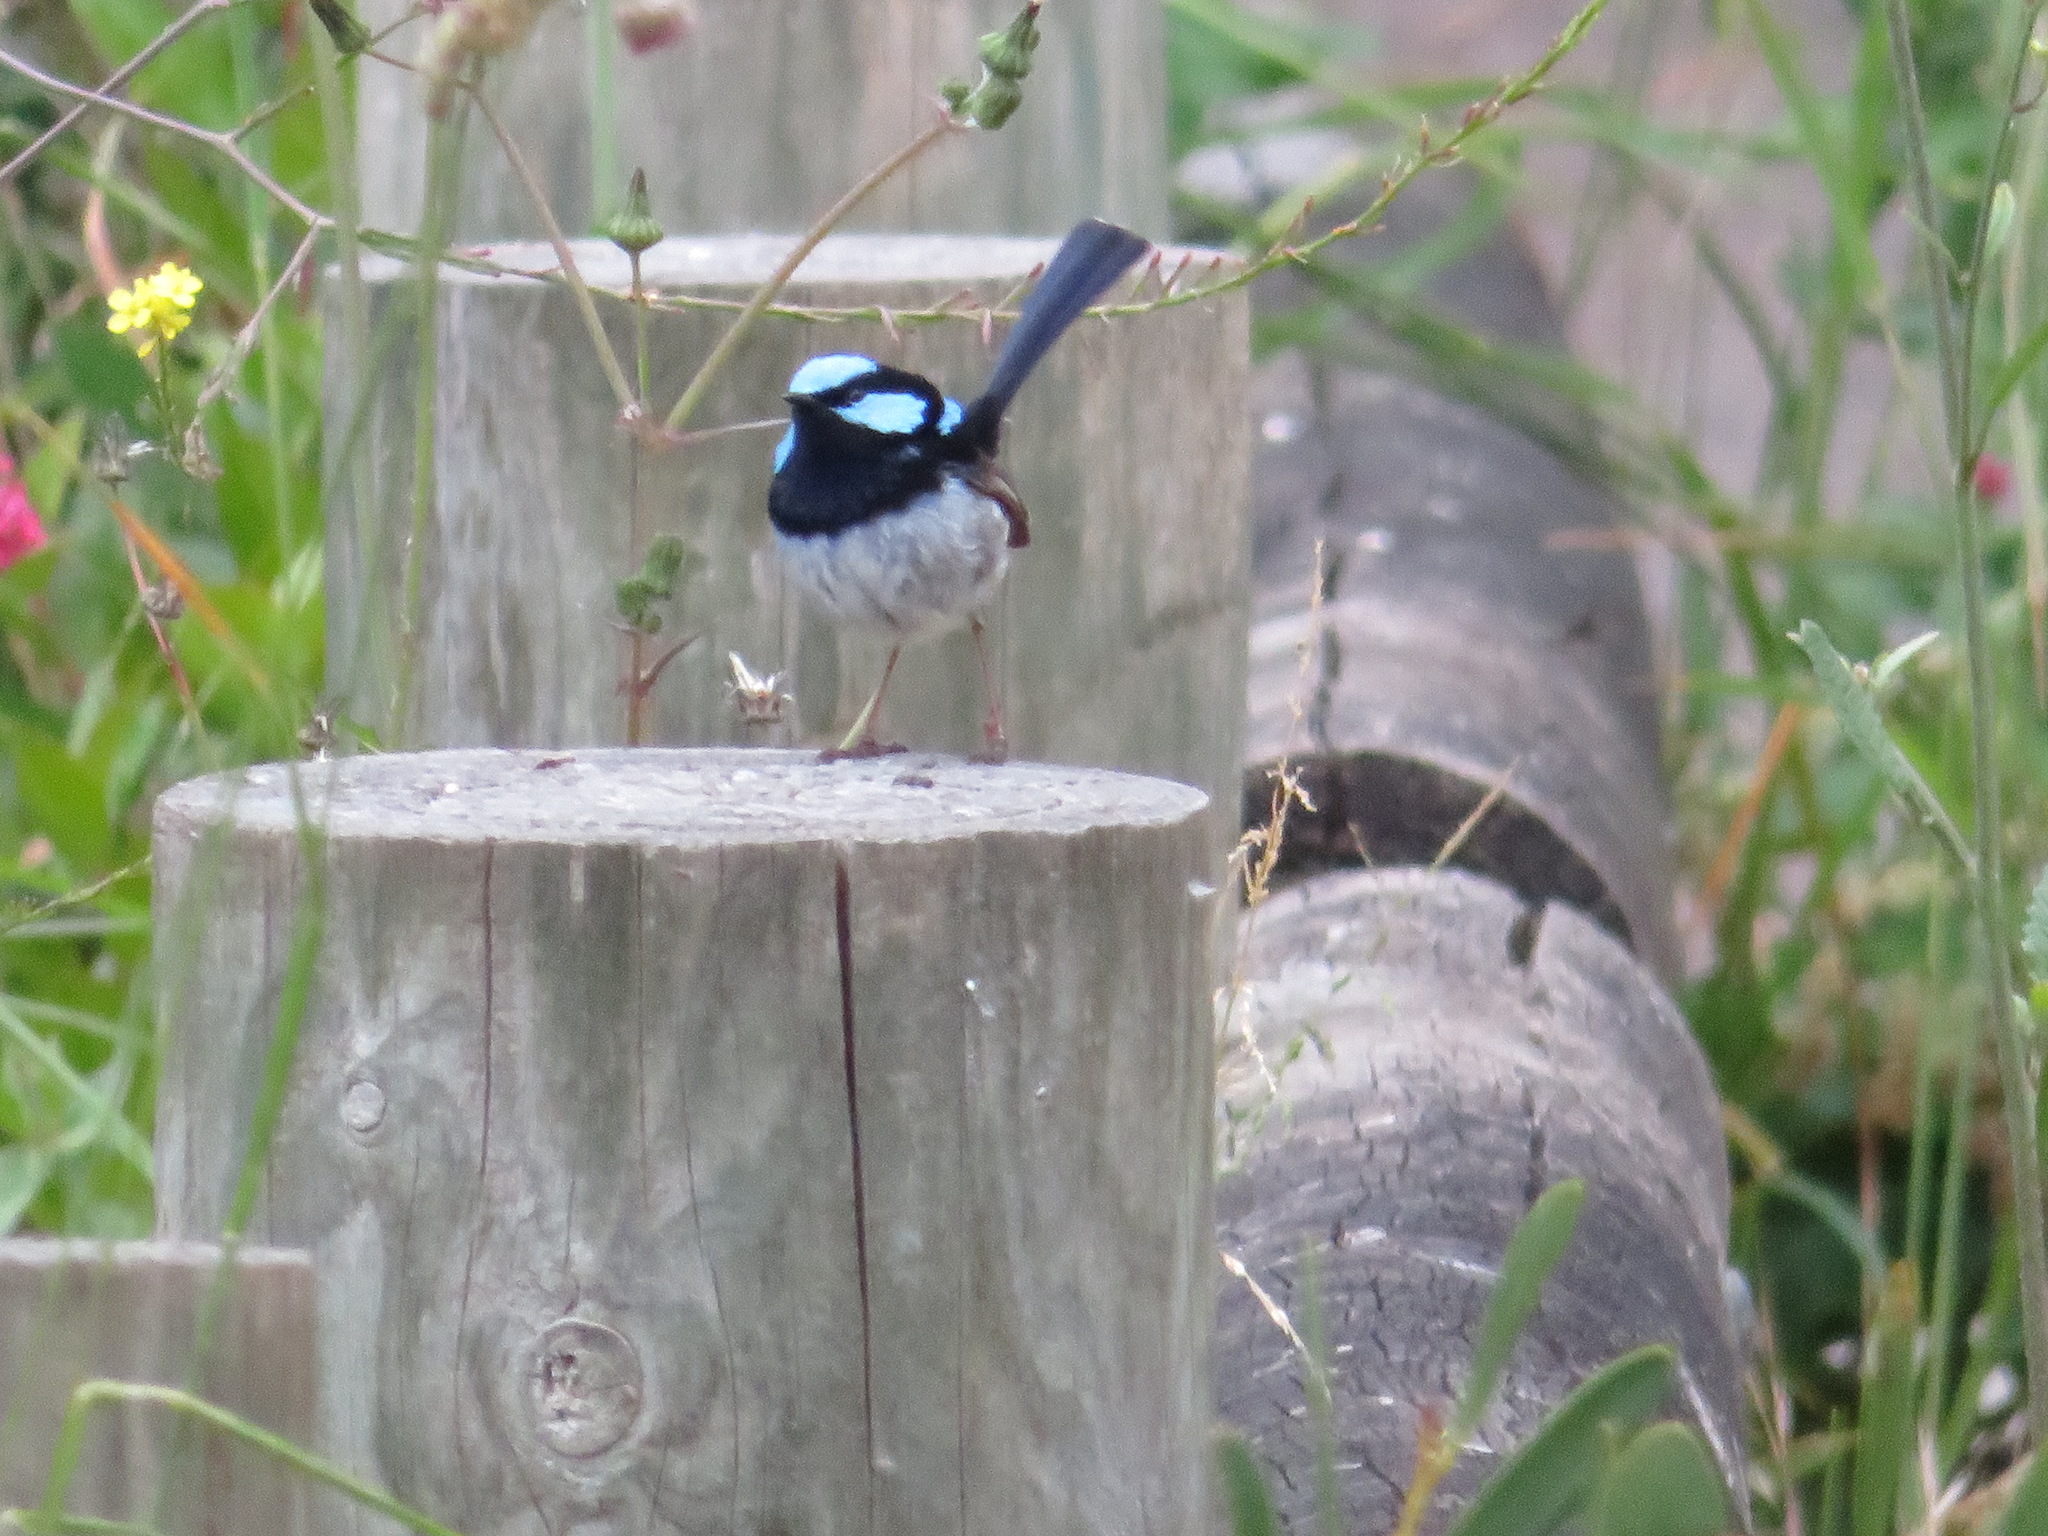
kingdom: Animalia
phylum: Chordata
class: Aves
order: Passeriformes
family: Maluridae
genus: Malurus
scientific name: Malurus cyaneus
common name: Superb fairywren
